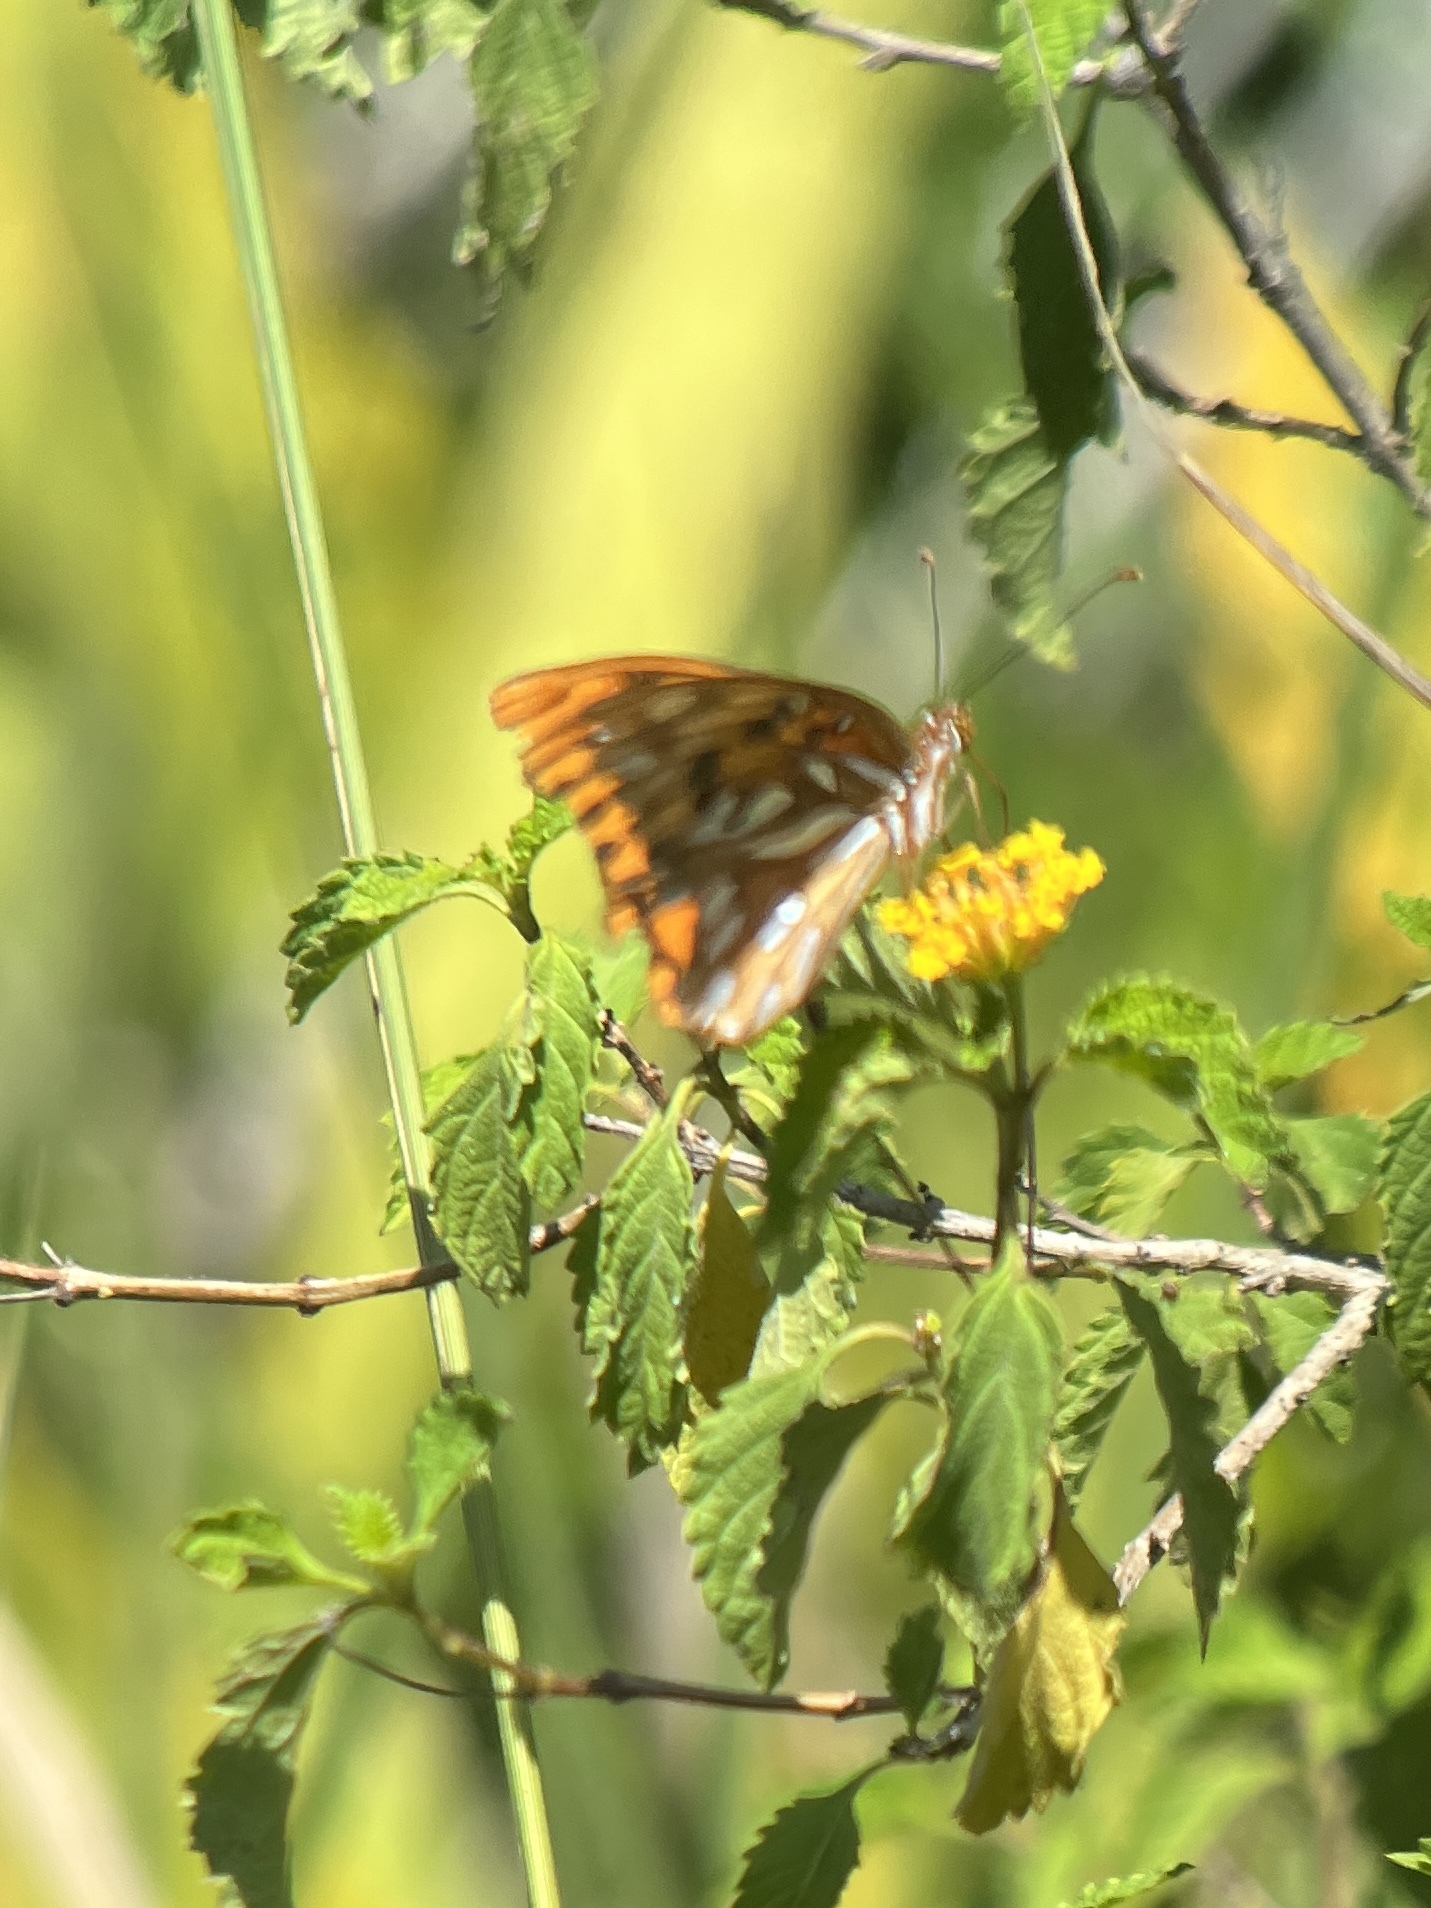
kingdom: Animalia
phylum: Arthropoda
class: Insecta
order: Lepidoptera
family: Nymphalidae
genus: Dione
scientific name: Dione vanillae
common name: Gulf fritillary
